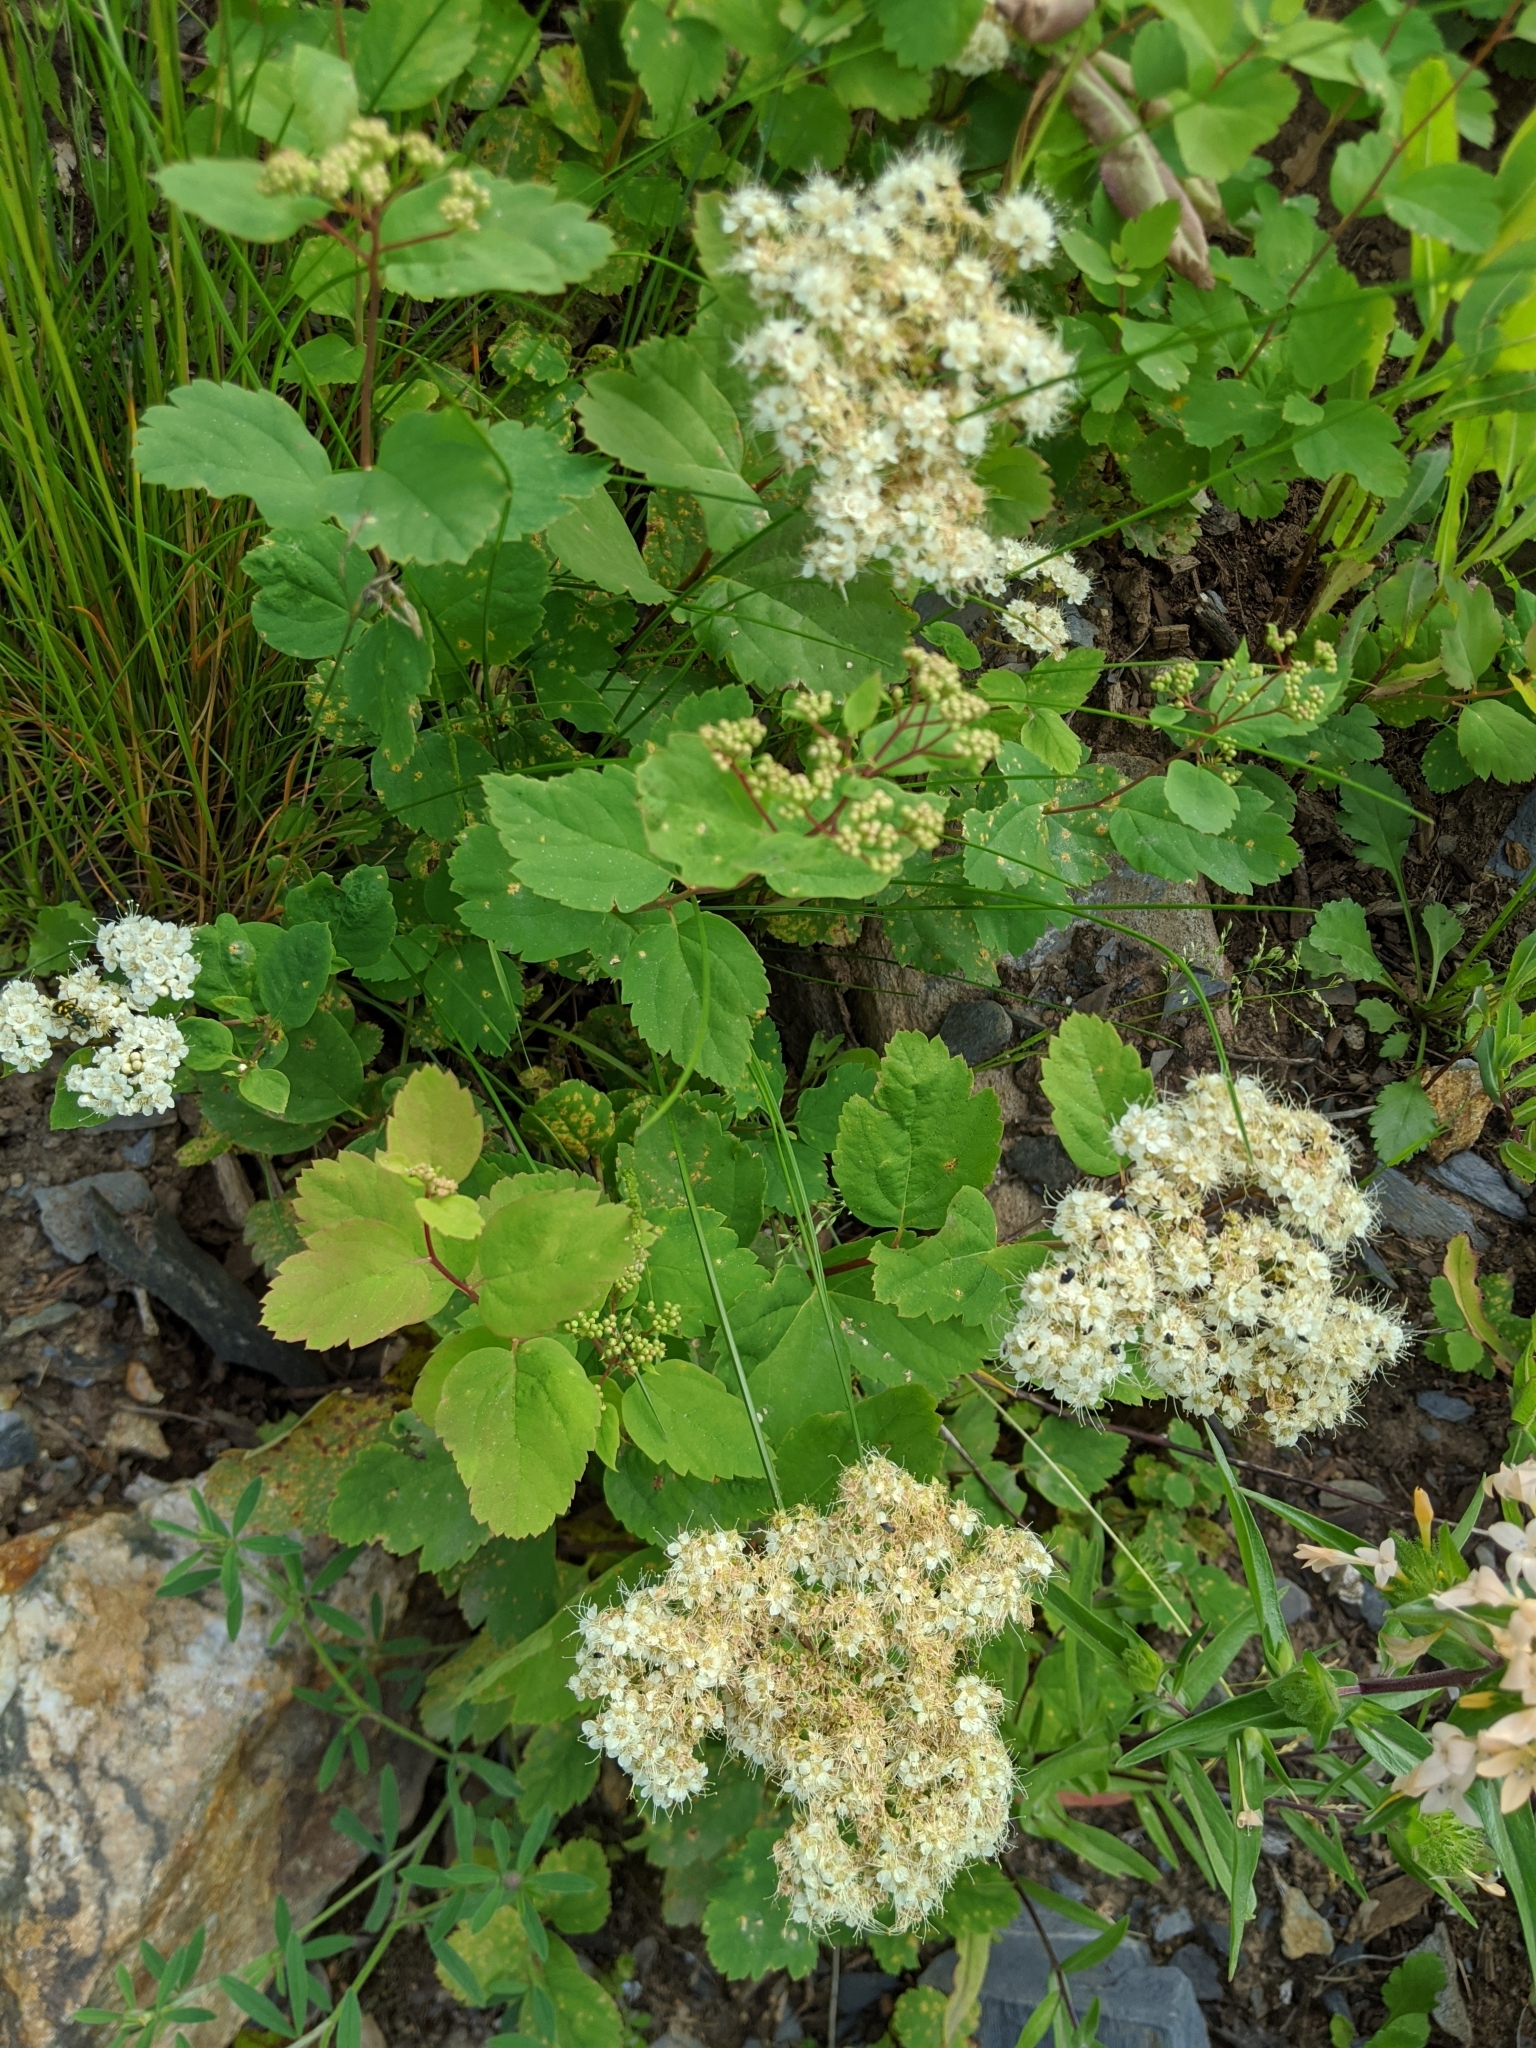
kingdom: Plantae
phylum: Tracheophyta
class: Magnoliopsida
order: Rosales
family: Rosaceae
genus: Spiraea
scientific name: Spiraea lucida
